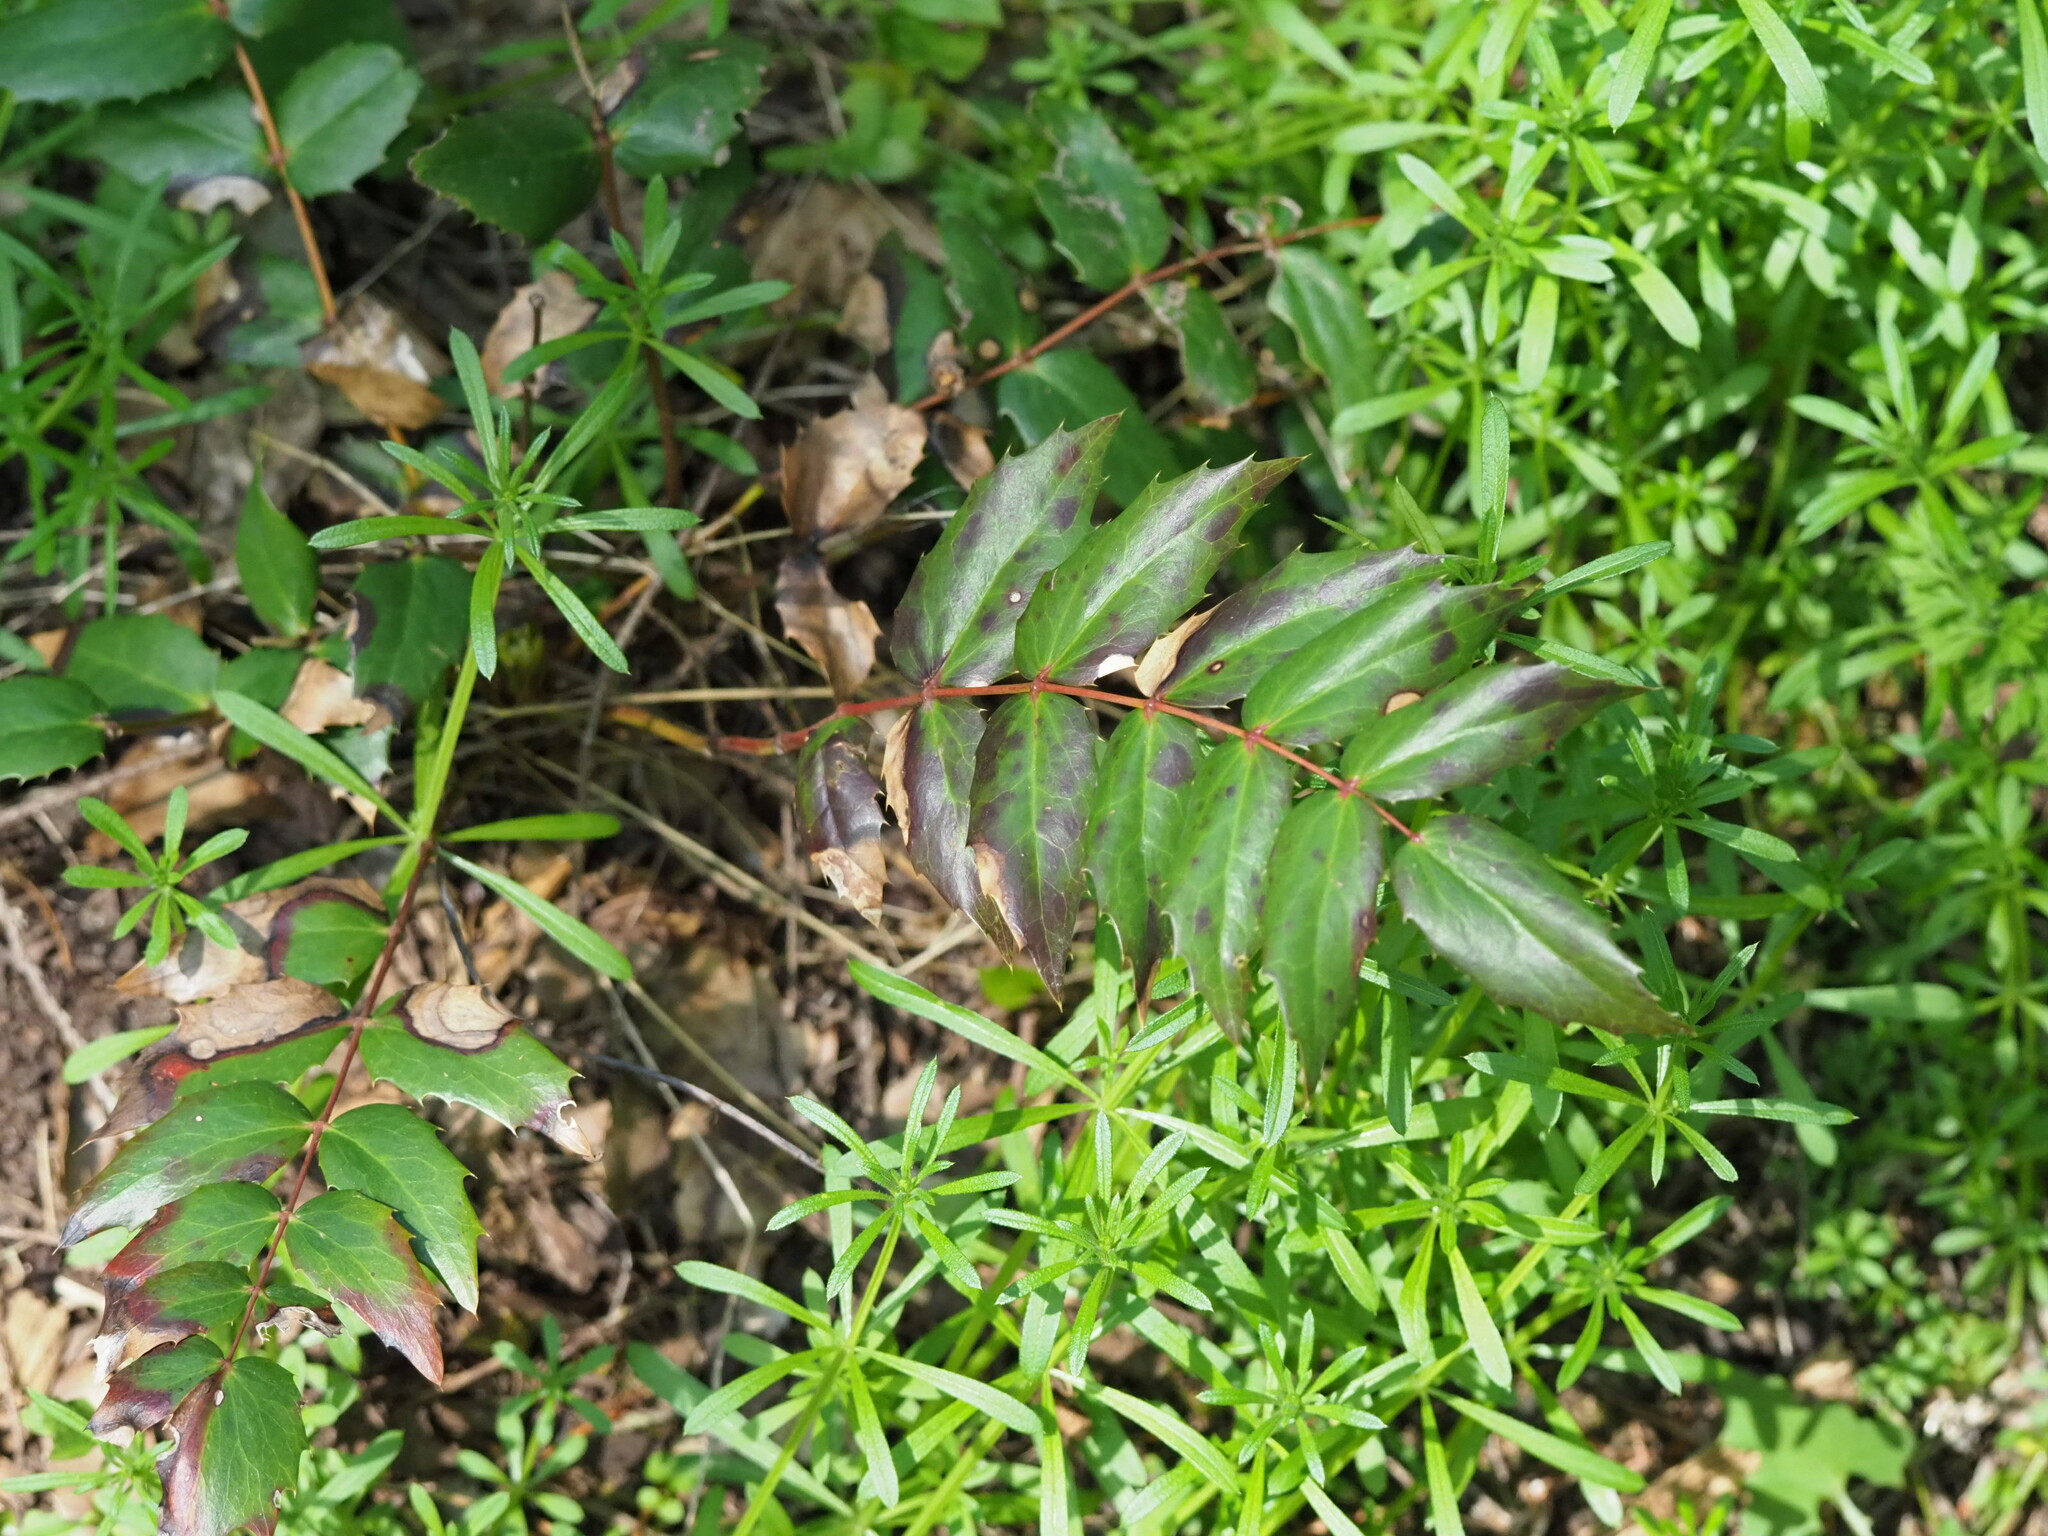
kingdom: Plantae
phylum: Tracheophyta
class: Magnoliopsida
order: Ranunculales
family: Berberidaceae
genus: Mahonia
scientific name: Mahonia nervosa
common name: Cascade oregon-grape
